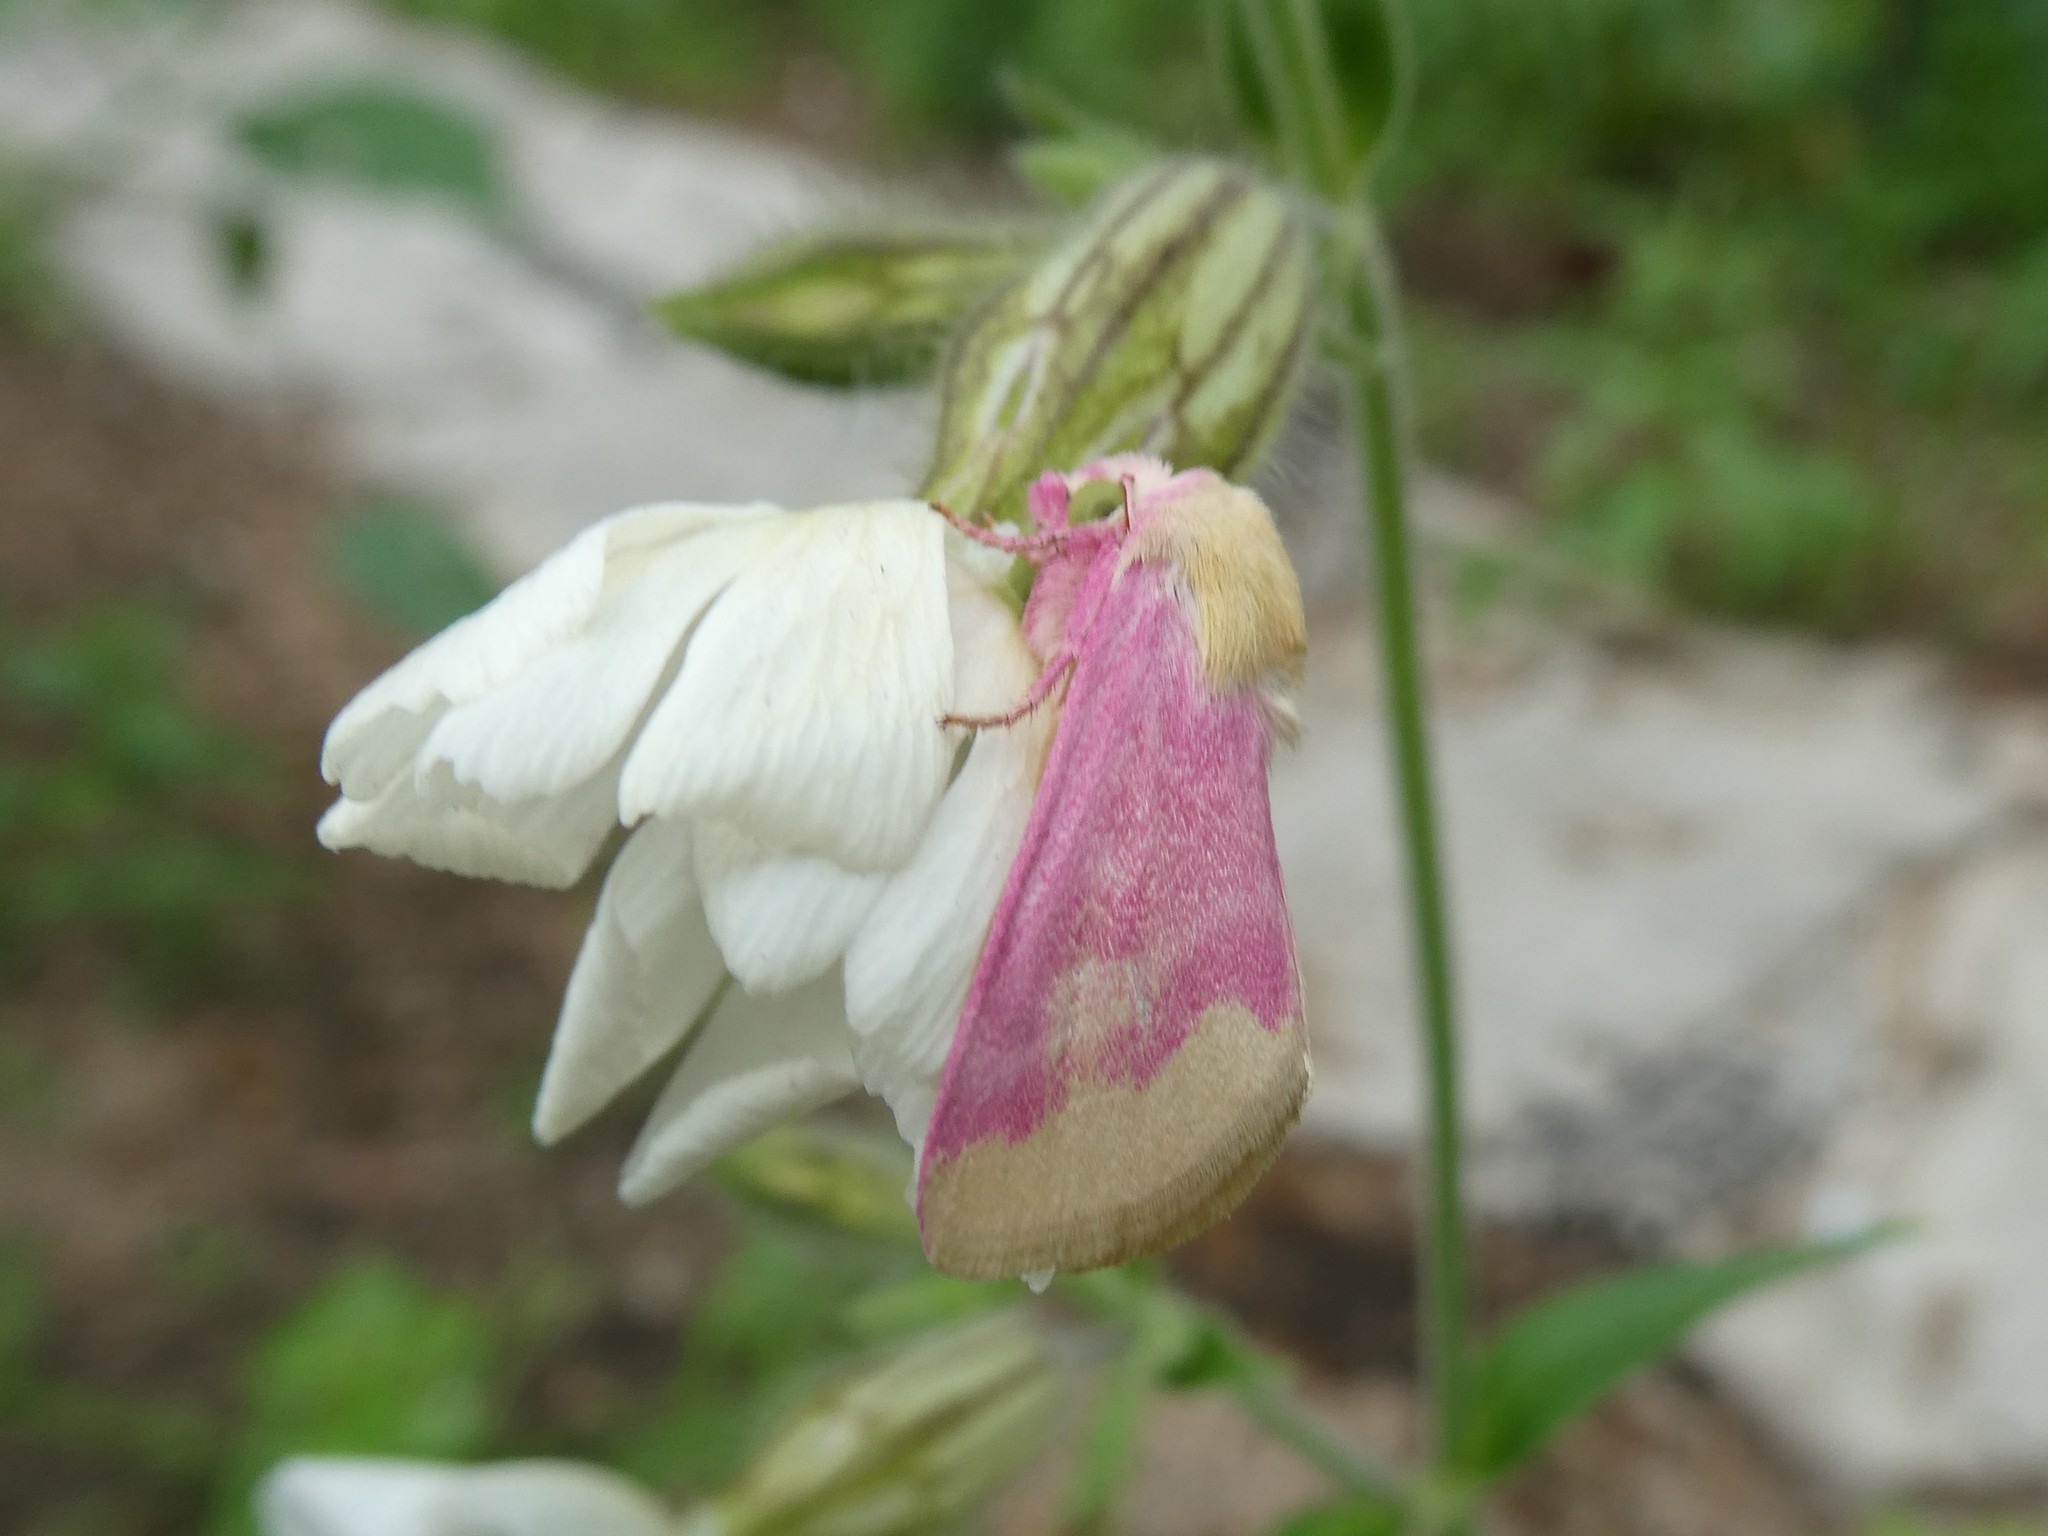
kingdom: Animalia
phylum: Arthropoda
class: Insecta
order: Lepidoptera
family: Noctuidae
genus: Schinia
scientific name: Schinia florida
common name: Primrose moth
